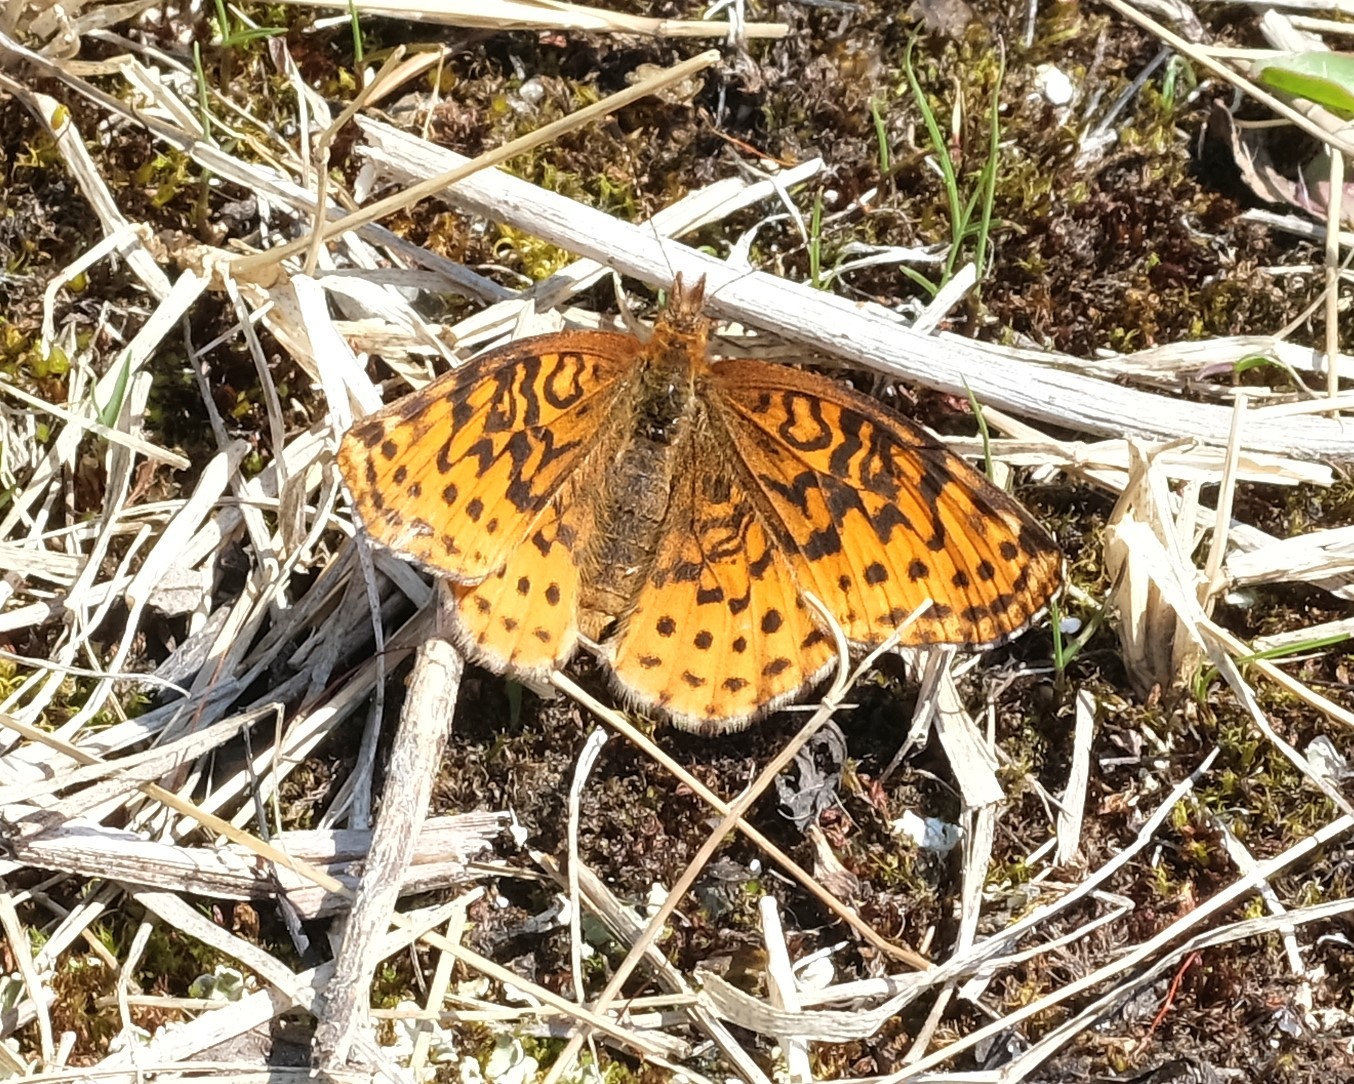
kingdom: Animalia
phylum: Arthropoda
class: Insecta
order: Lepidoptera
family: Nymphalidae
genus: Clossiana
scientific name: Clossiana toddi
